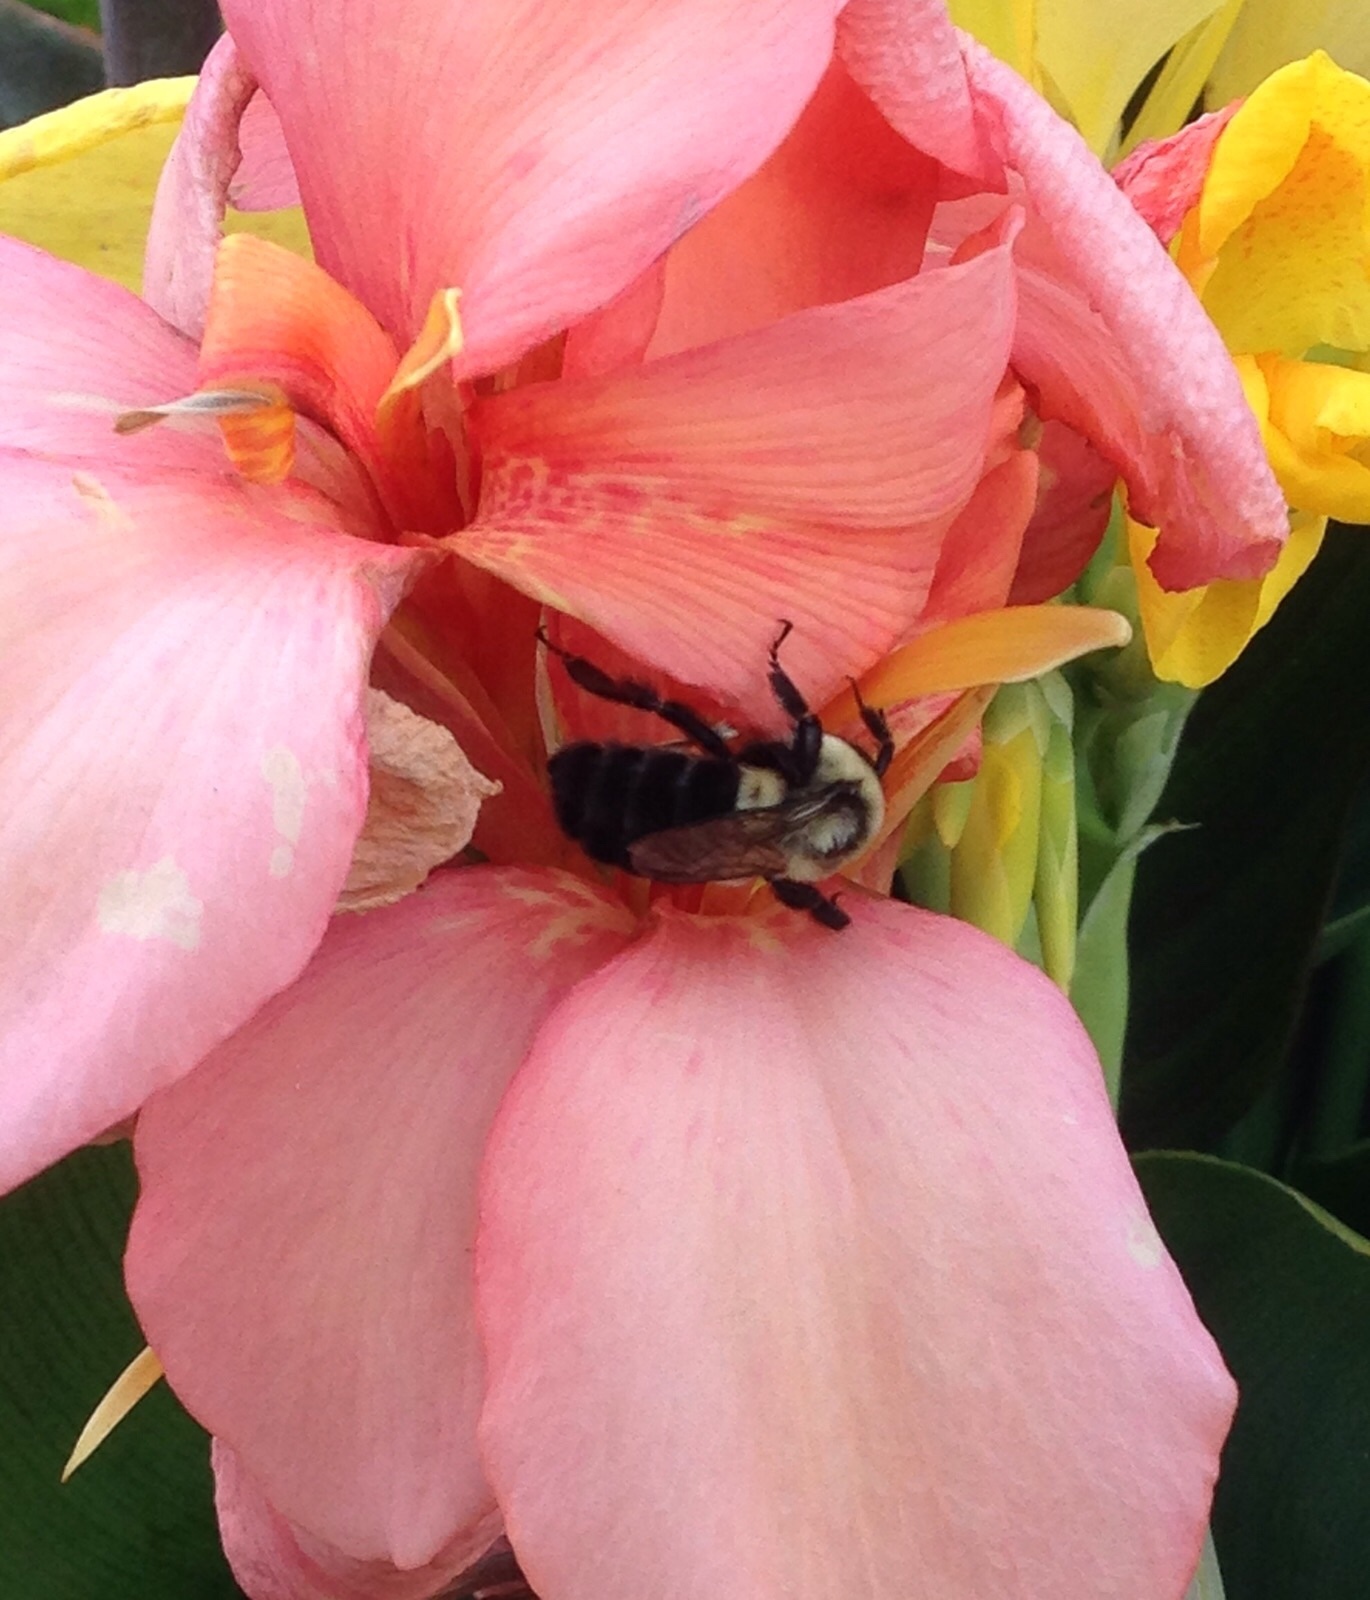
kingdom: Animalia
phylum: Arthropoda
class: Insecta
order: Hymenoptera
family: Apidae
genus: Bombus
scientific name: Bombus impatiens
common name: Common eastern bumble bee
